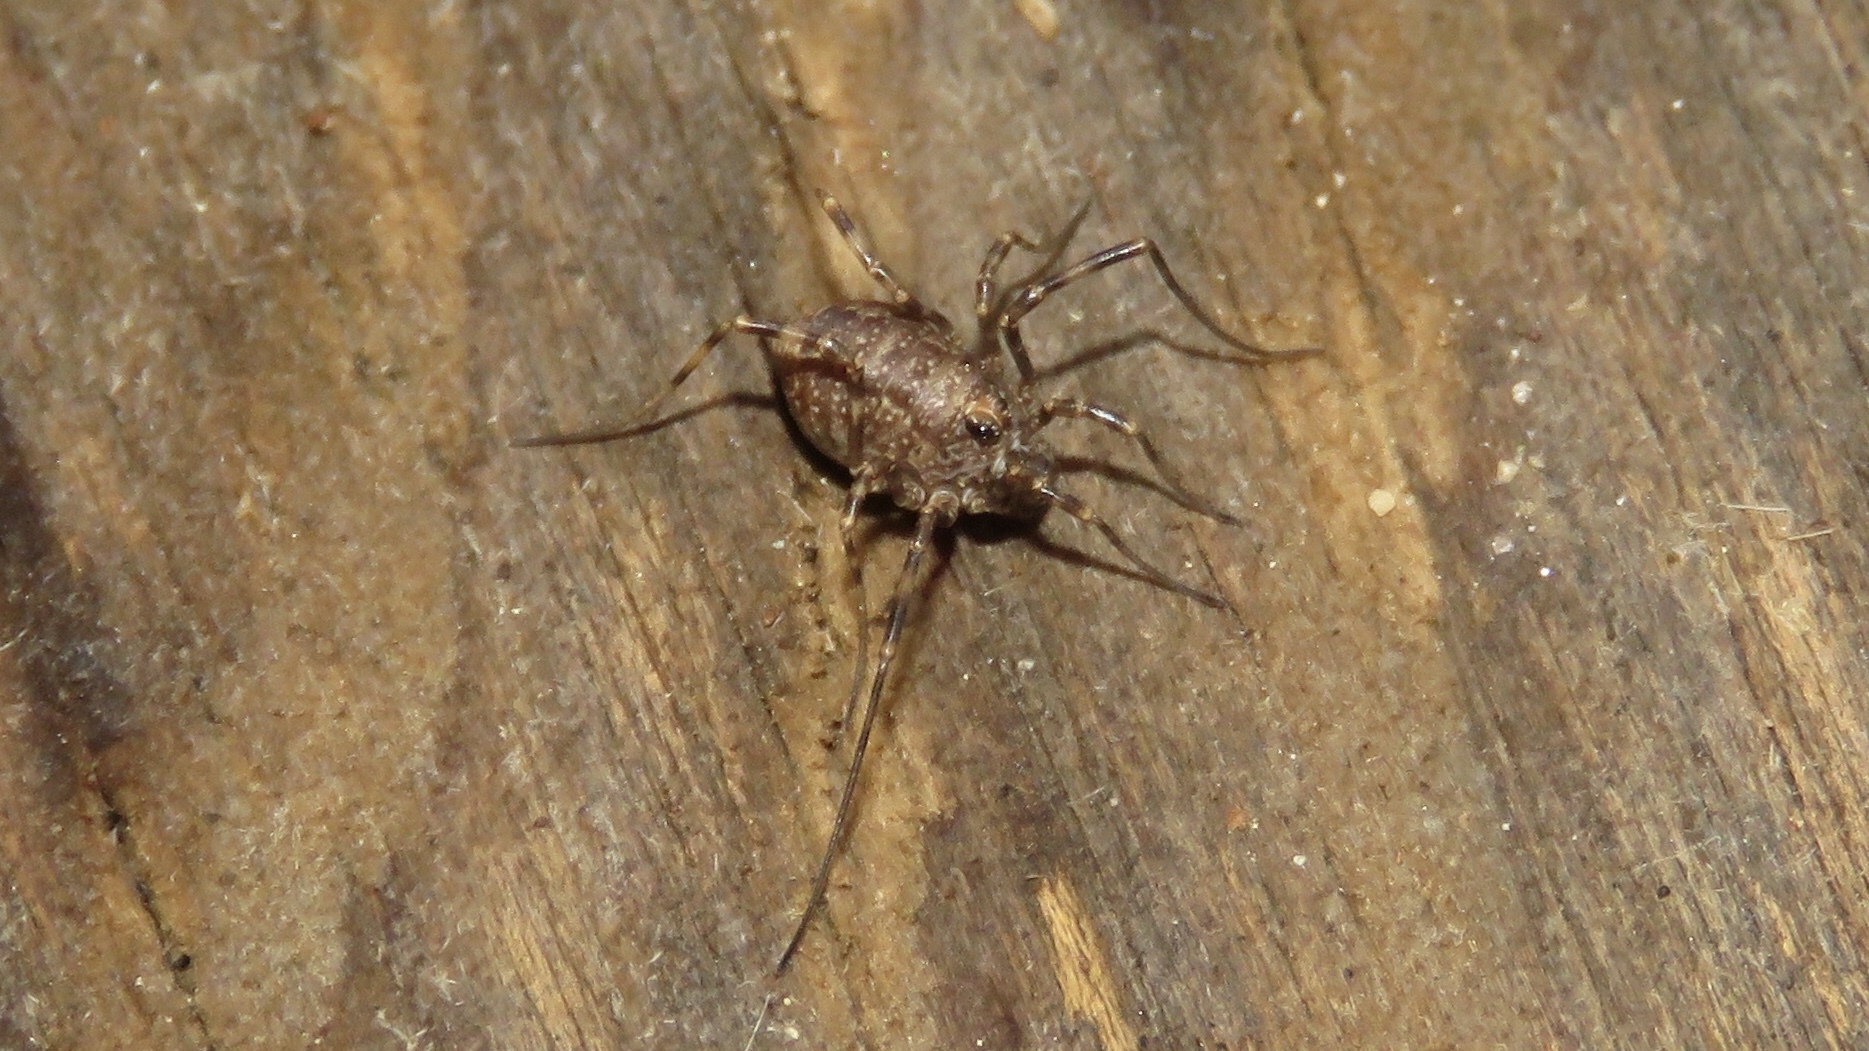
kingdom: Animalia
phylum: Arthropoda
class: Arachnida
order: Opiliones
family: Phalangiidae
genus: Rilaena
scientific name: Rilaena triangularis
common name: Spring harvestman
